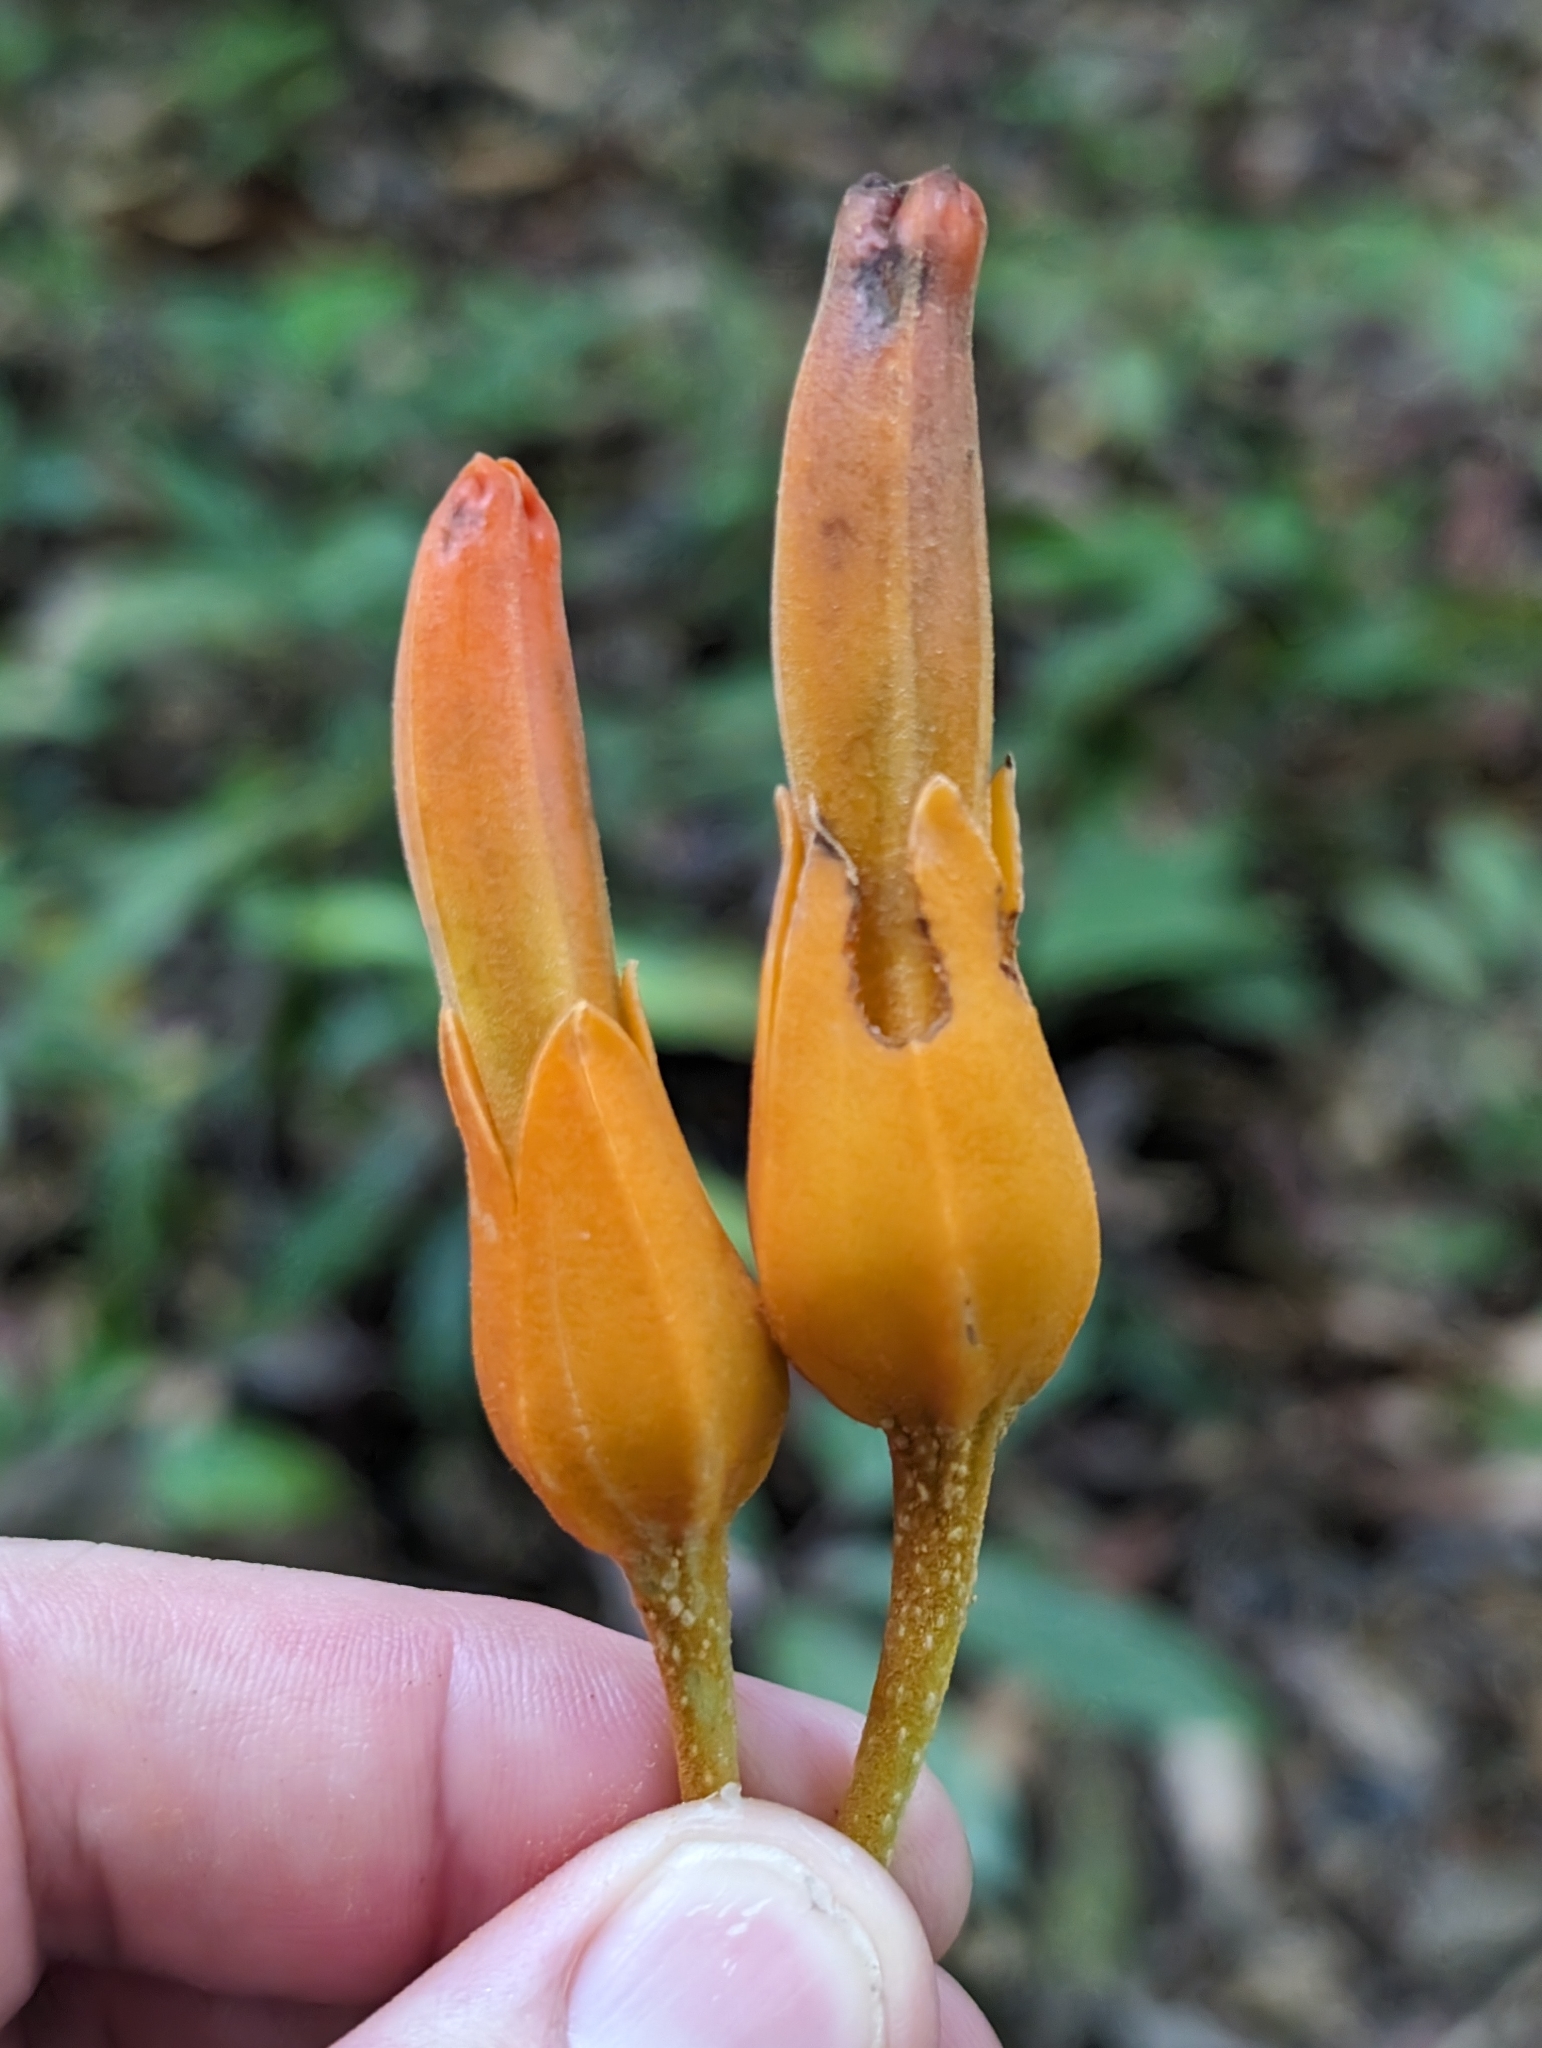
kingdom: Plantae
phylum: Tracheophyta
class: Magnoliopsida
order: Solanales
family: Solanaceae
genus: Juanulloa
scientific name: Juanulloa mexicana
